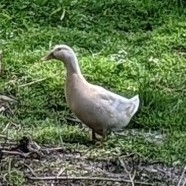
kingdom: Animalia
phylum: Chordata
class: Aves
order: Anseriformes
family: Anatidae
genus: Anas
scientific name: Anas platyrhynchos
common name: Mallard
